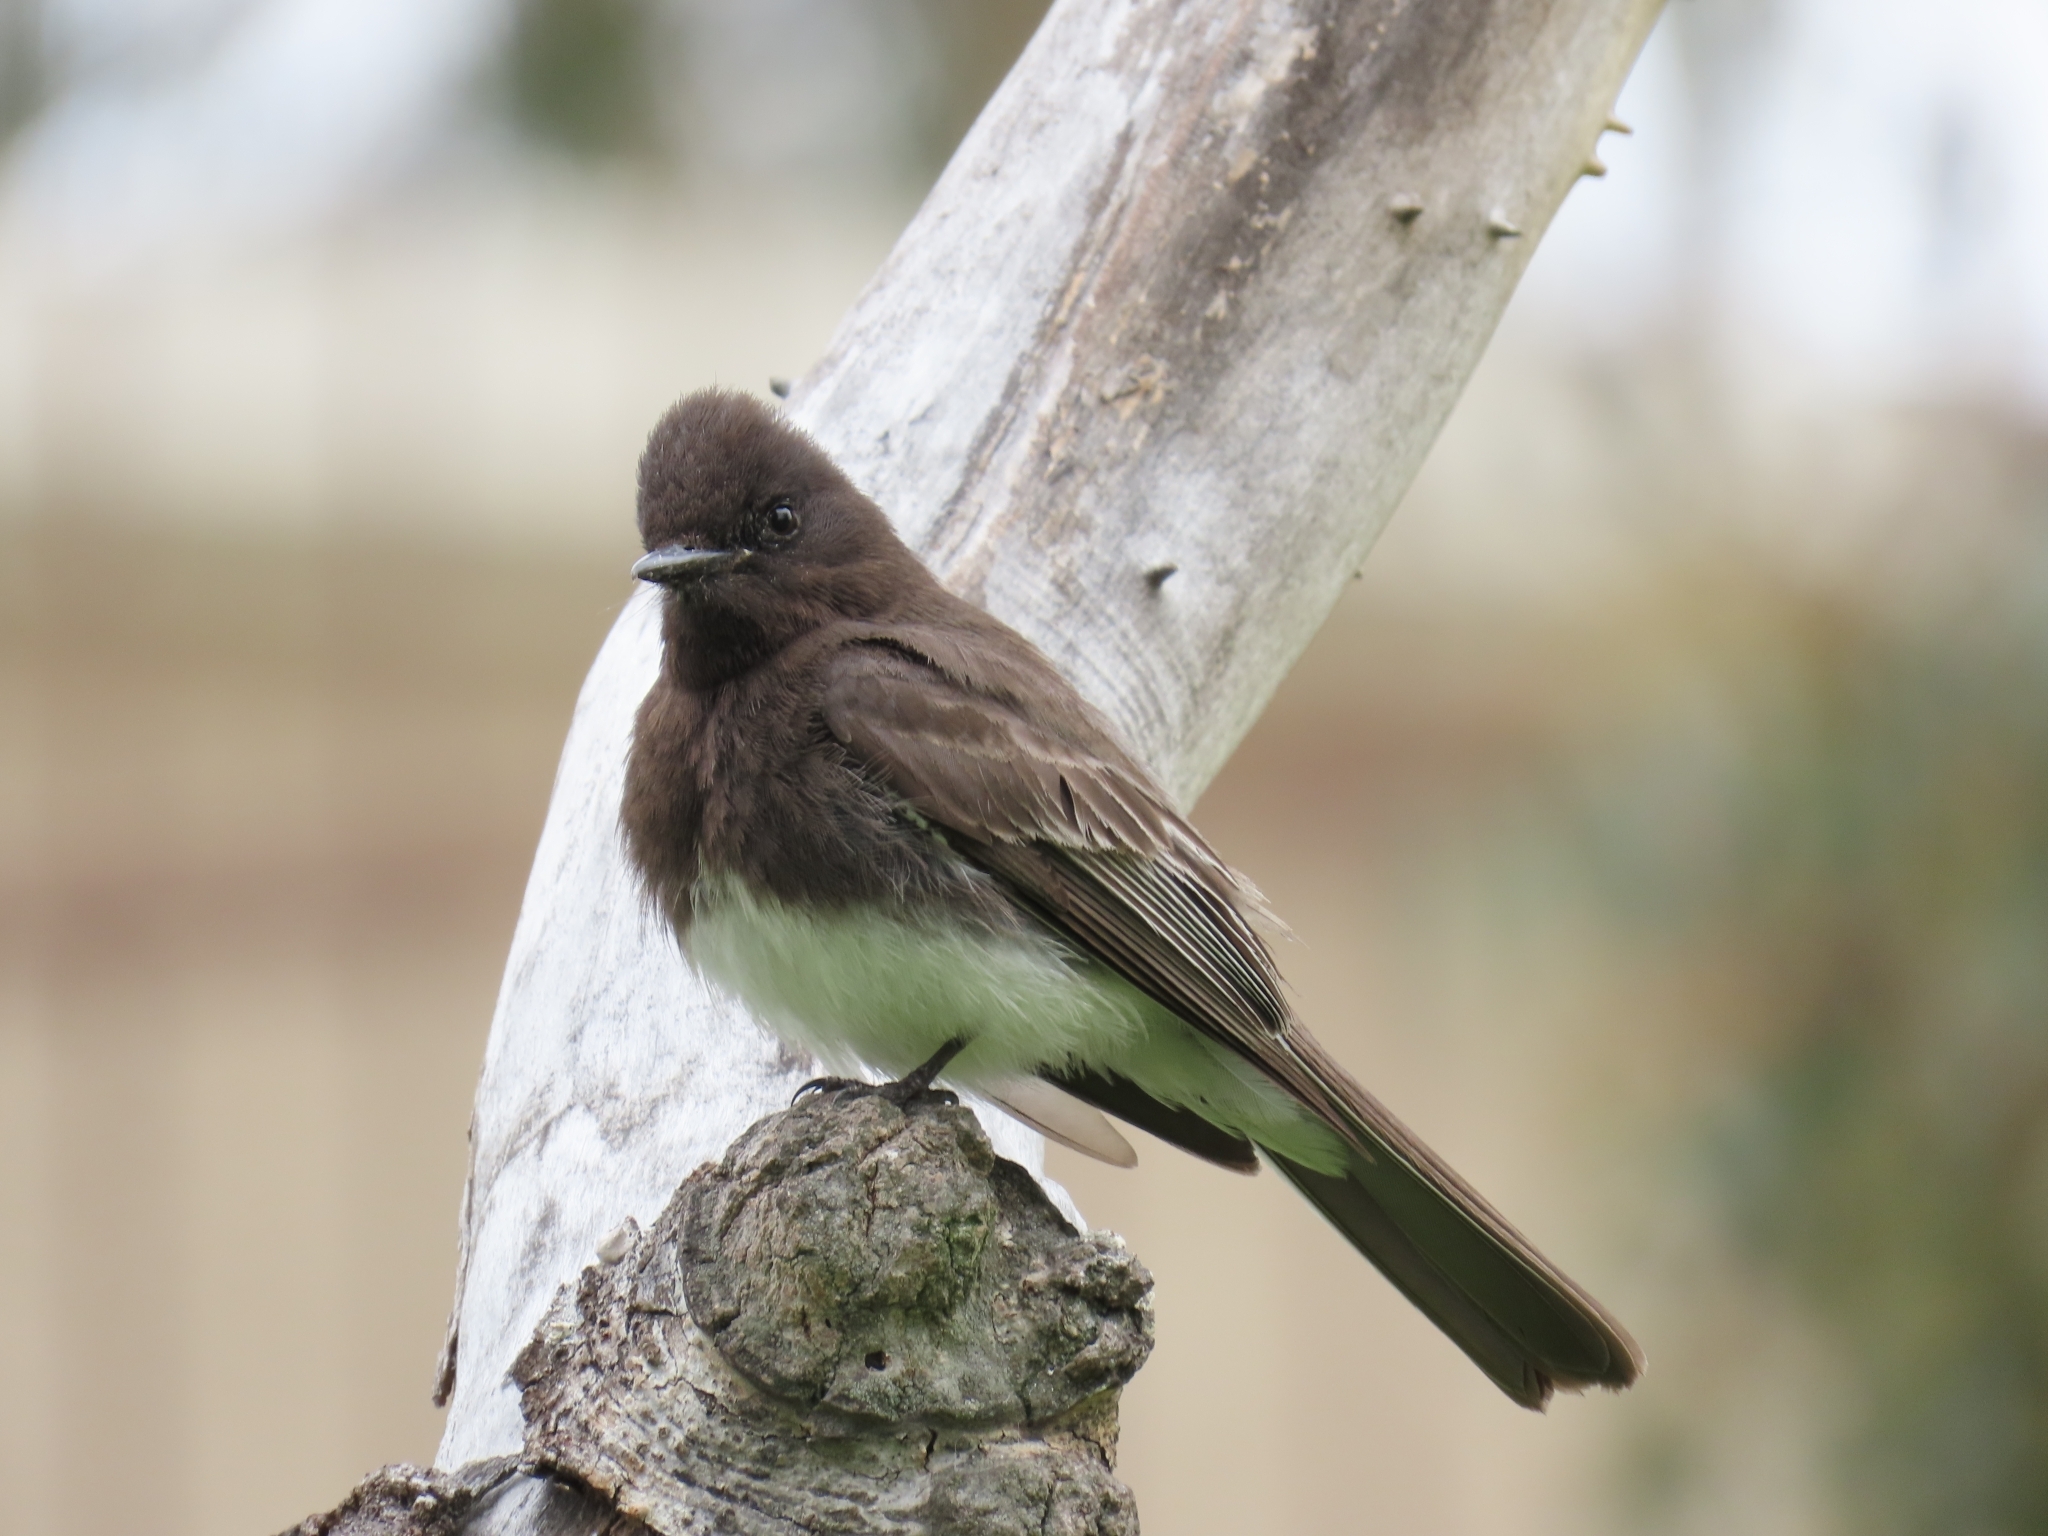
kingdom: Animalia
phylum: Chordata
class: Aves
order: Passeriformes
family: Tyrannidae
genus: Sayornis
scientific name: Sayornis nigricans
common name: Black phoebe
